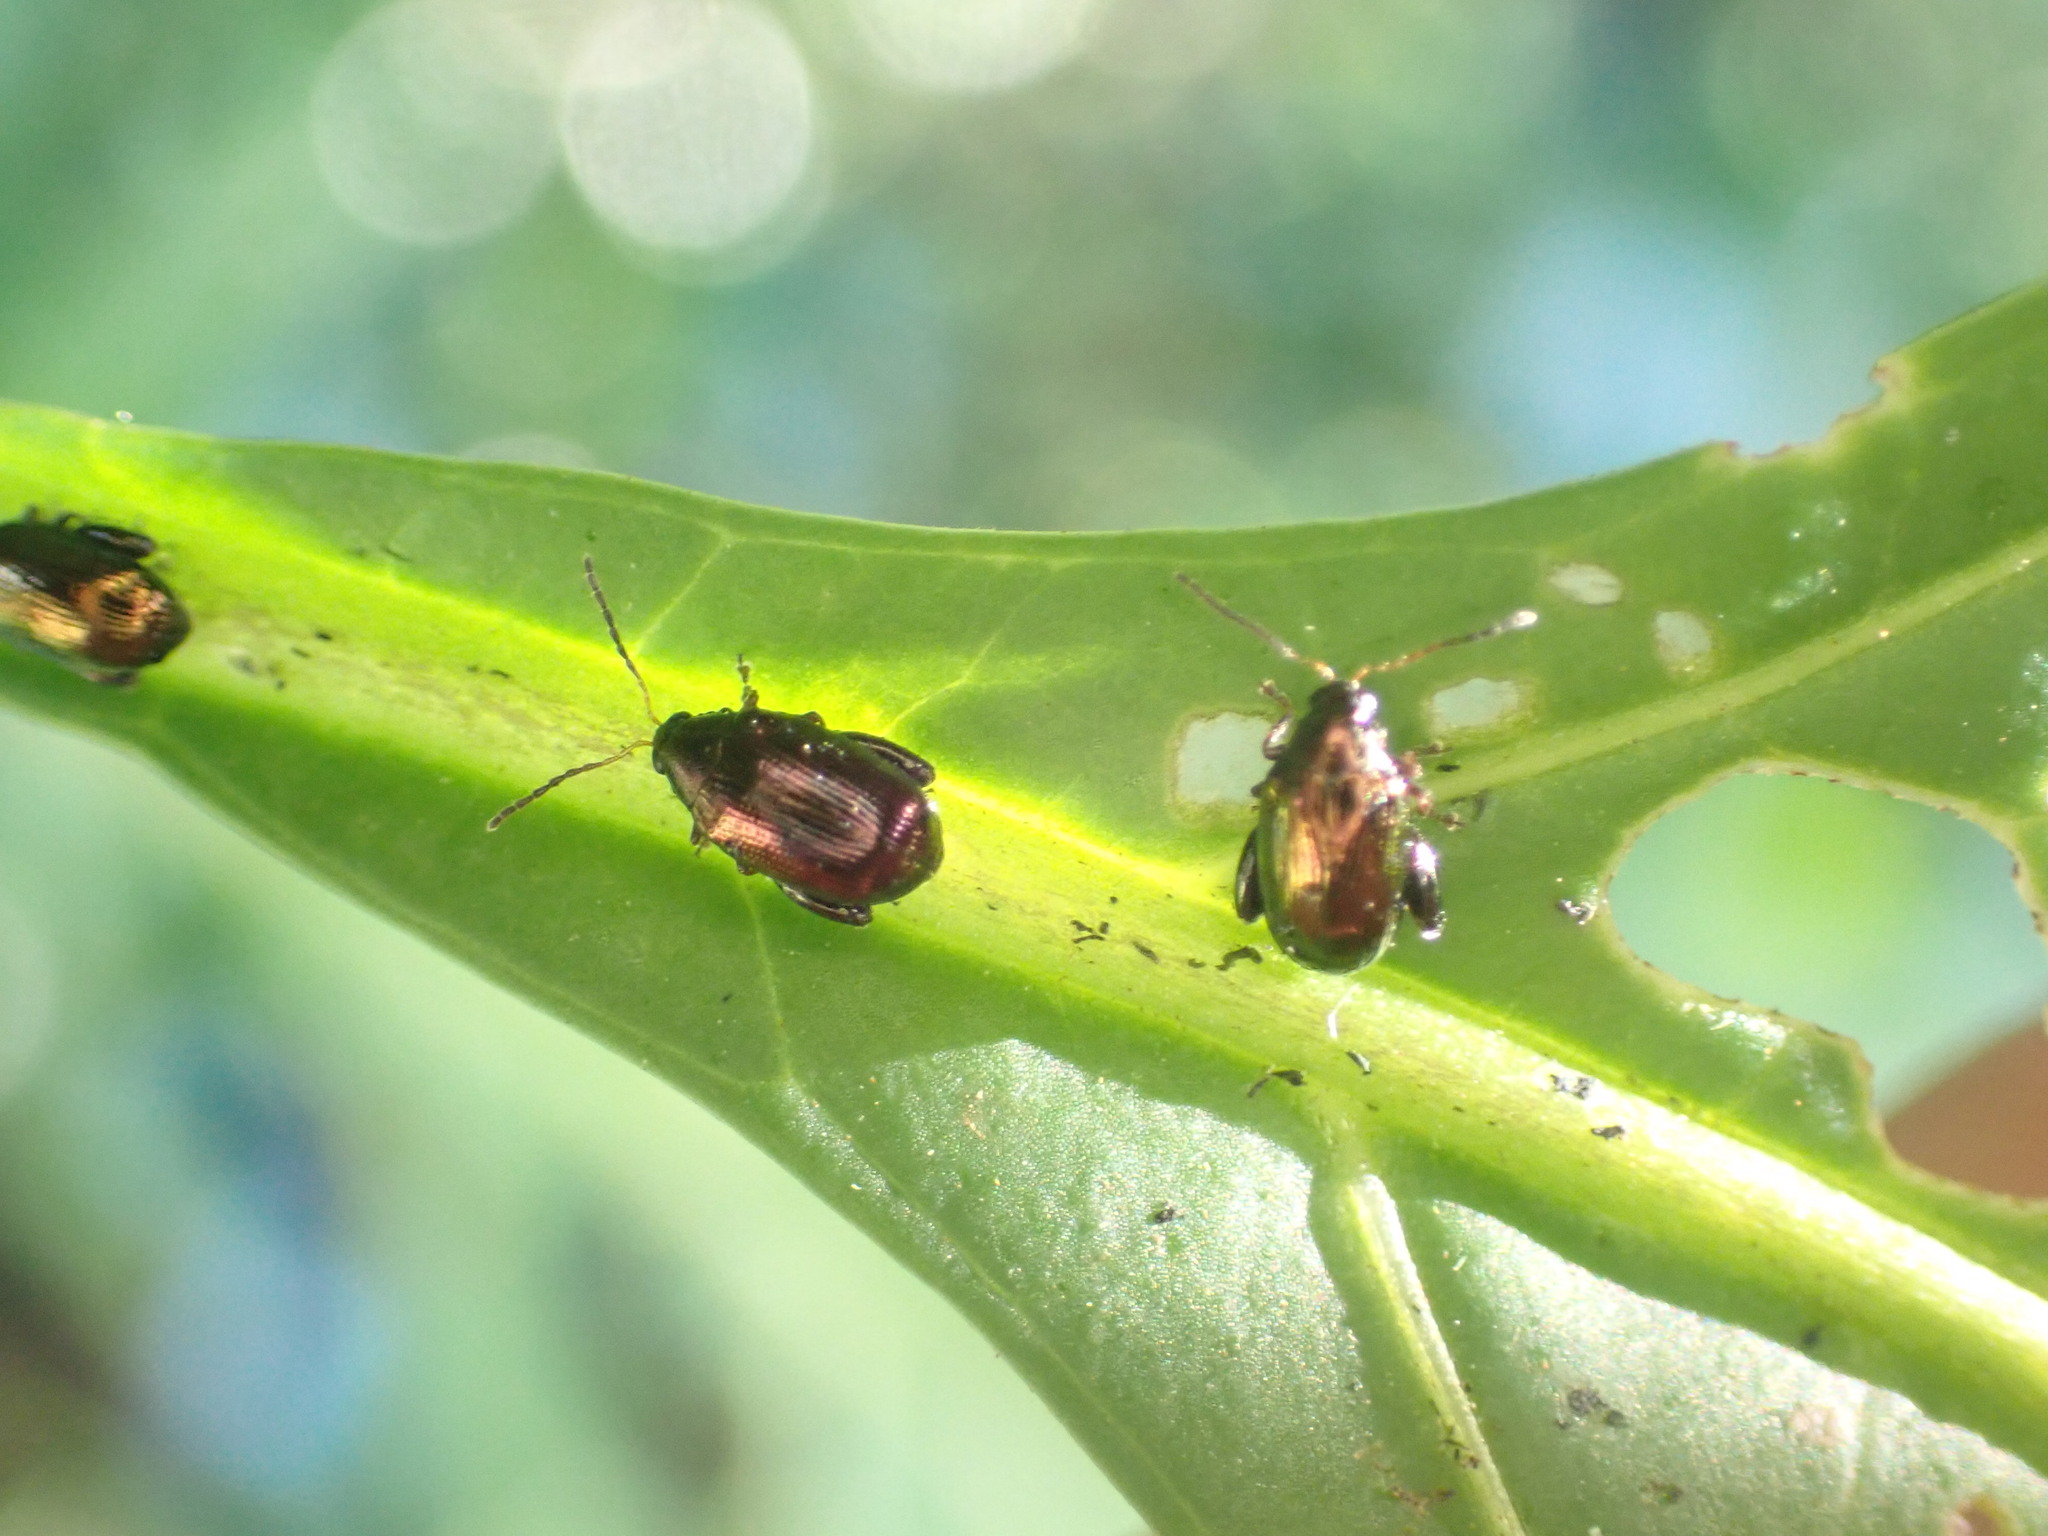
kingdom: Animalia
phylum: Arthropoda
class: Insecta
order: Coleoptera
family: Chrysomelidae
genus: Psylliodes
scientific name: Psylliodes brettinghami
